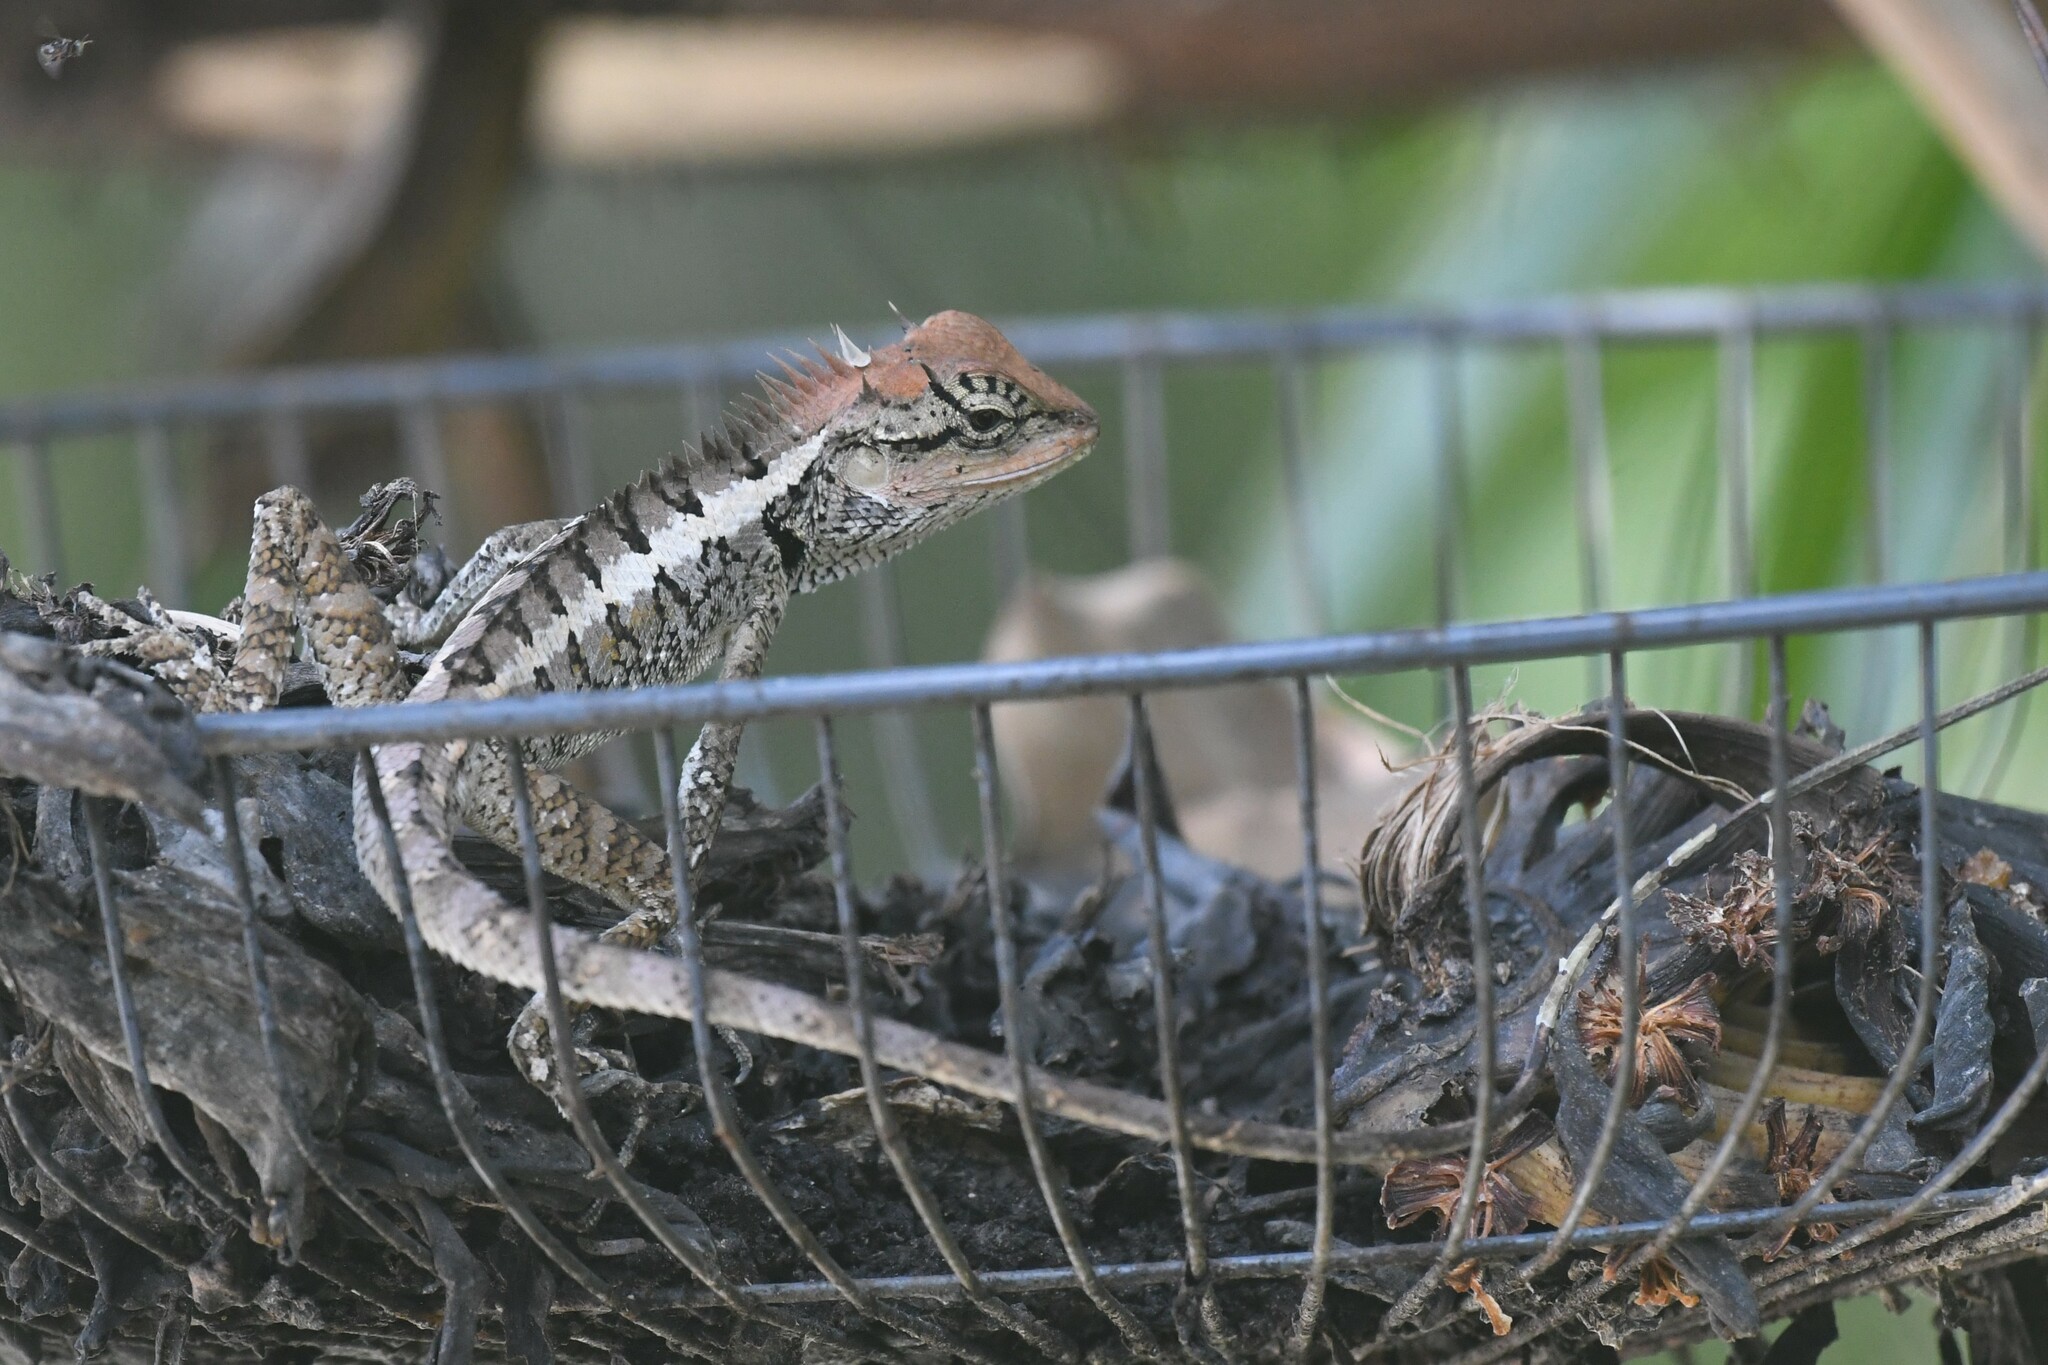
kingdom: Animalia
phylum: Chordata
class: Squamata
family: Agamidae
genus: Calotes
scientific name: Calotes emma
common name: Thailand bloodsucker
